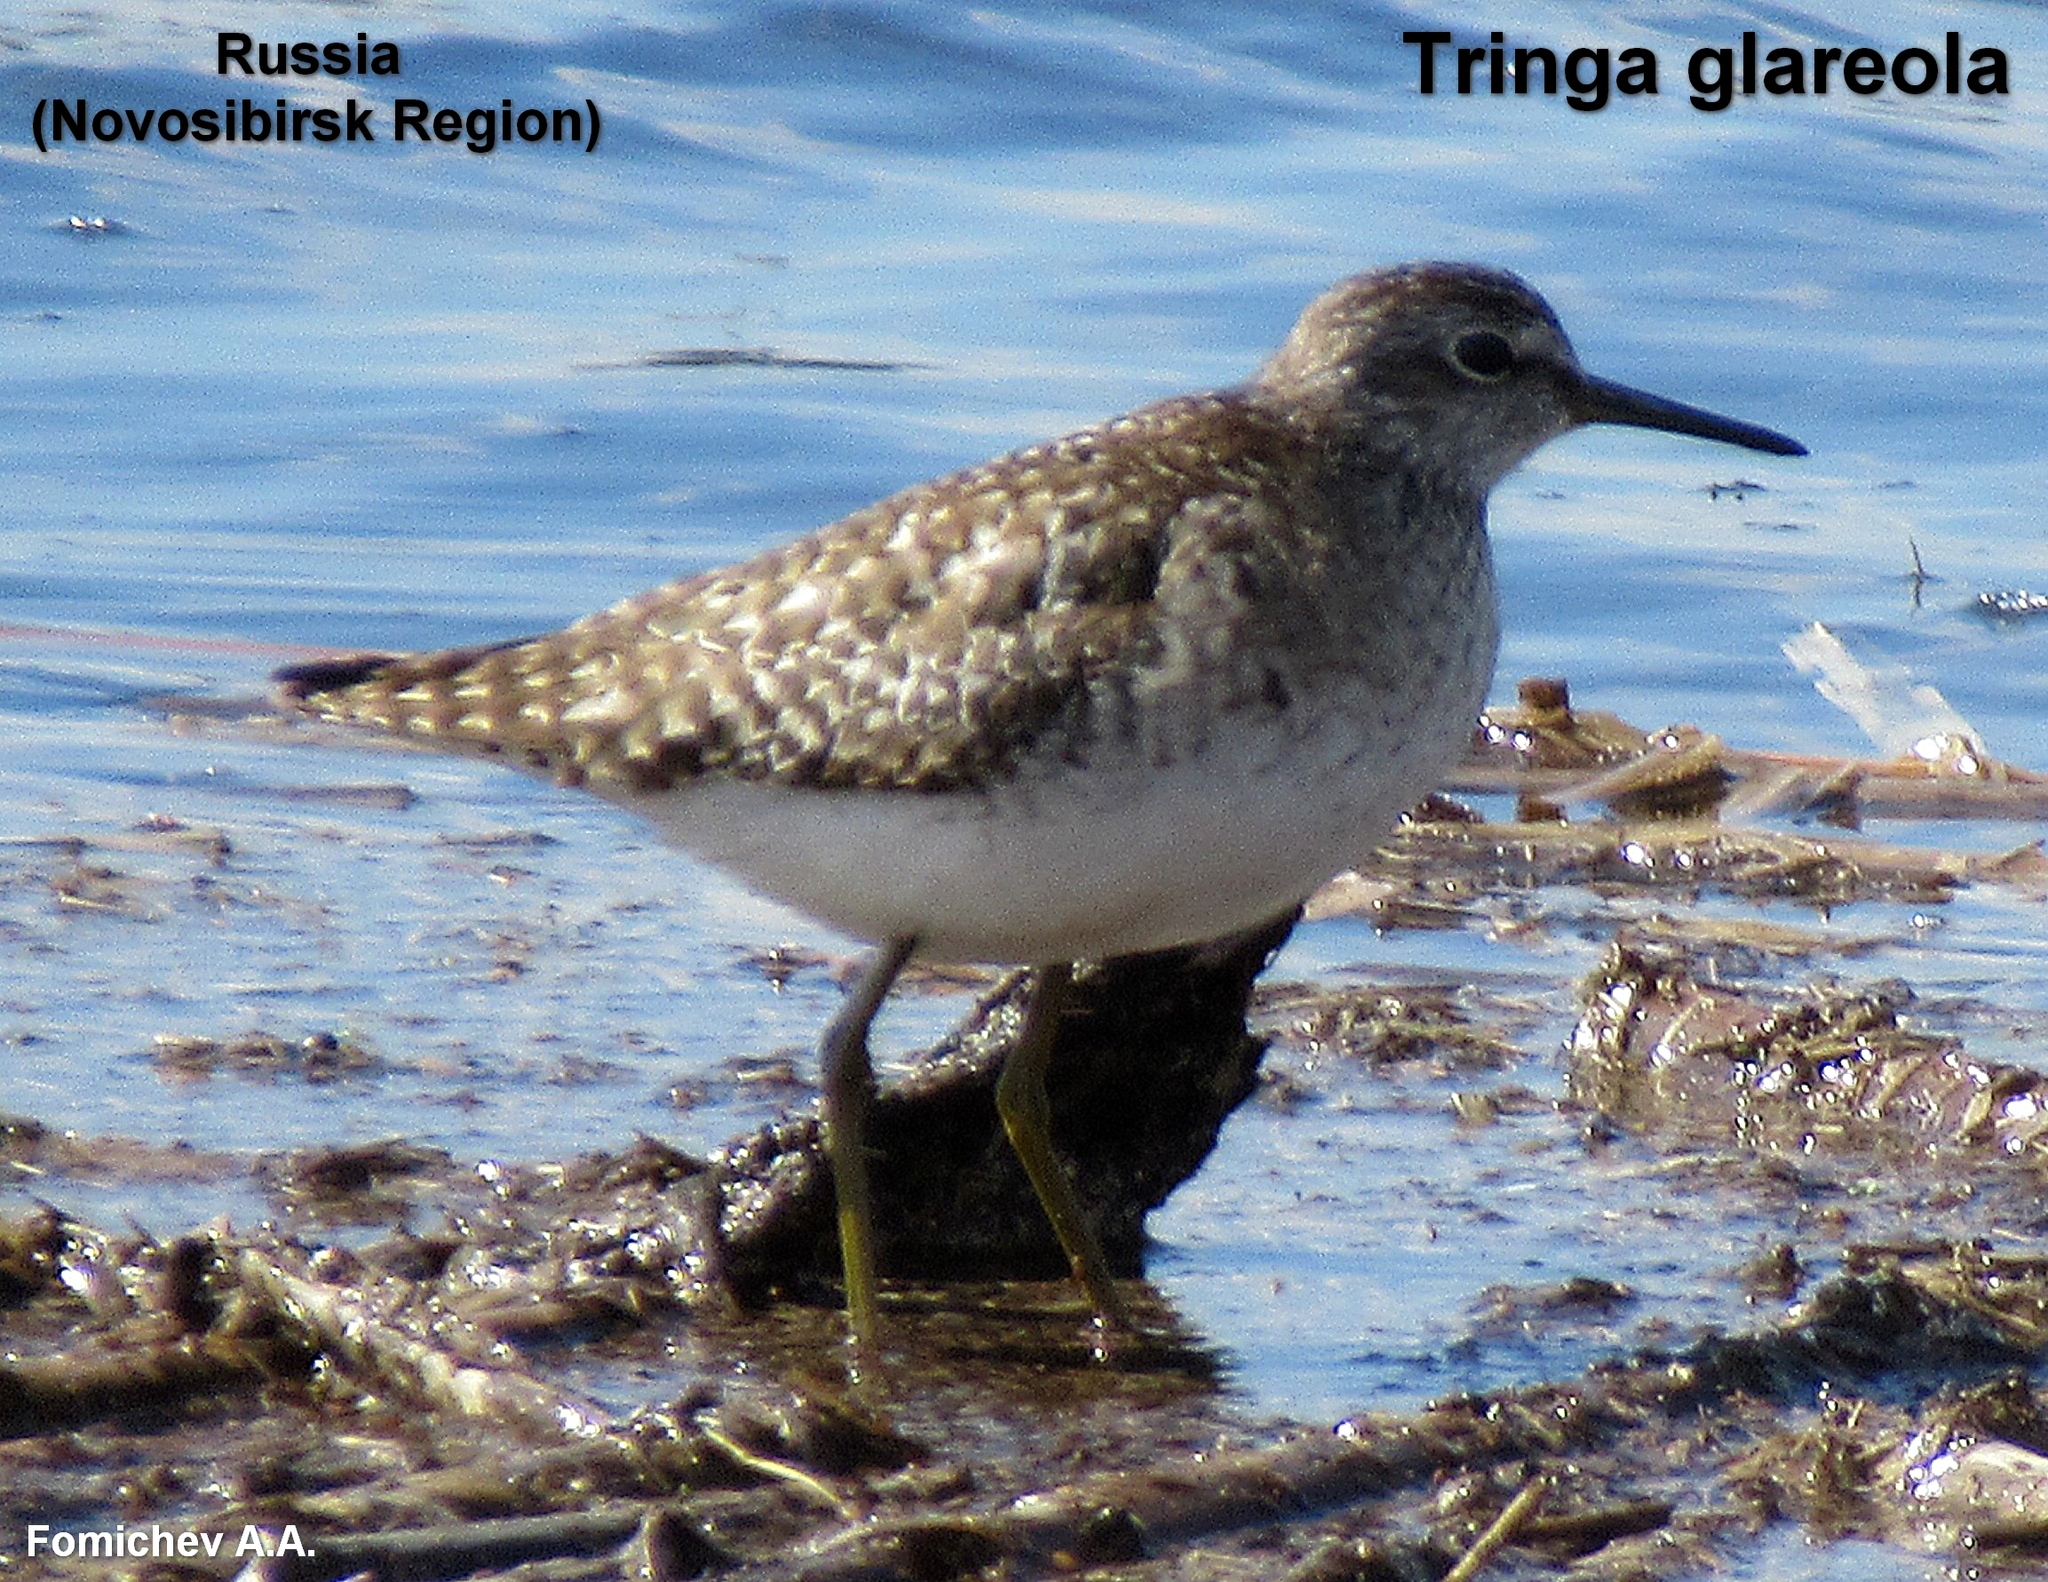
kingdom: Animalia
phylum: Chordata
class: Aves
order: Charadriiformes
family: Scolopacidae
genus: Tringa
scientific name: Tringa glareola
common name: Wood sandpiper
